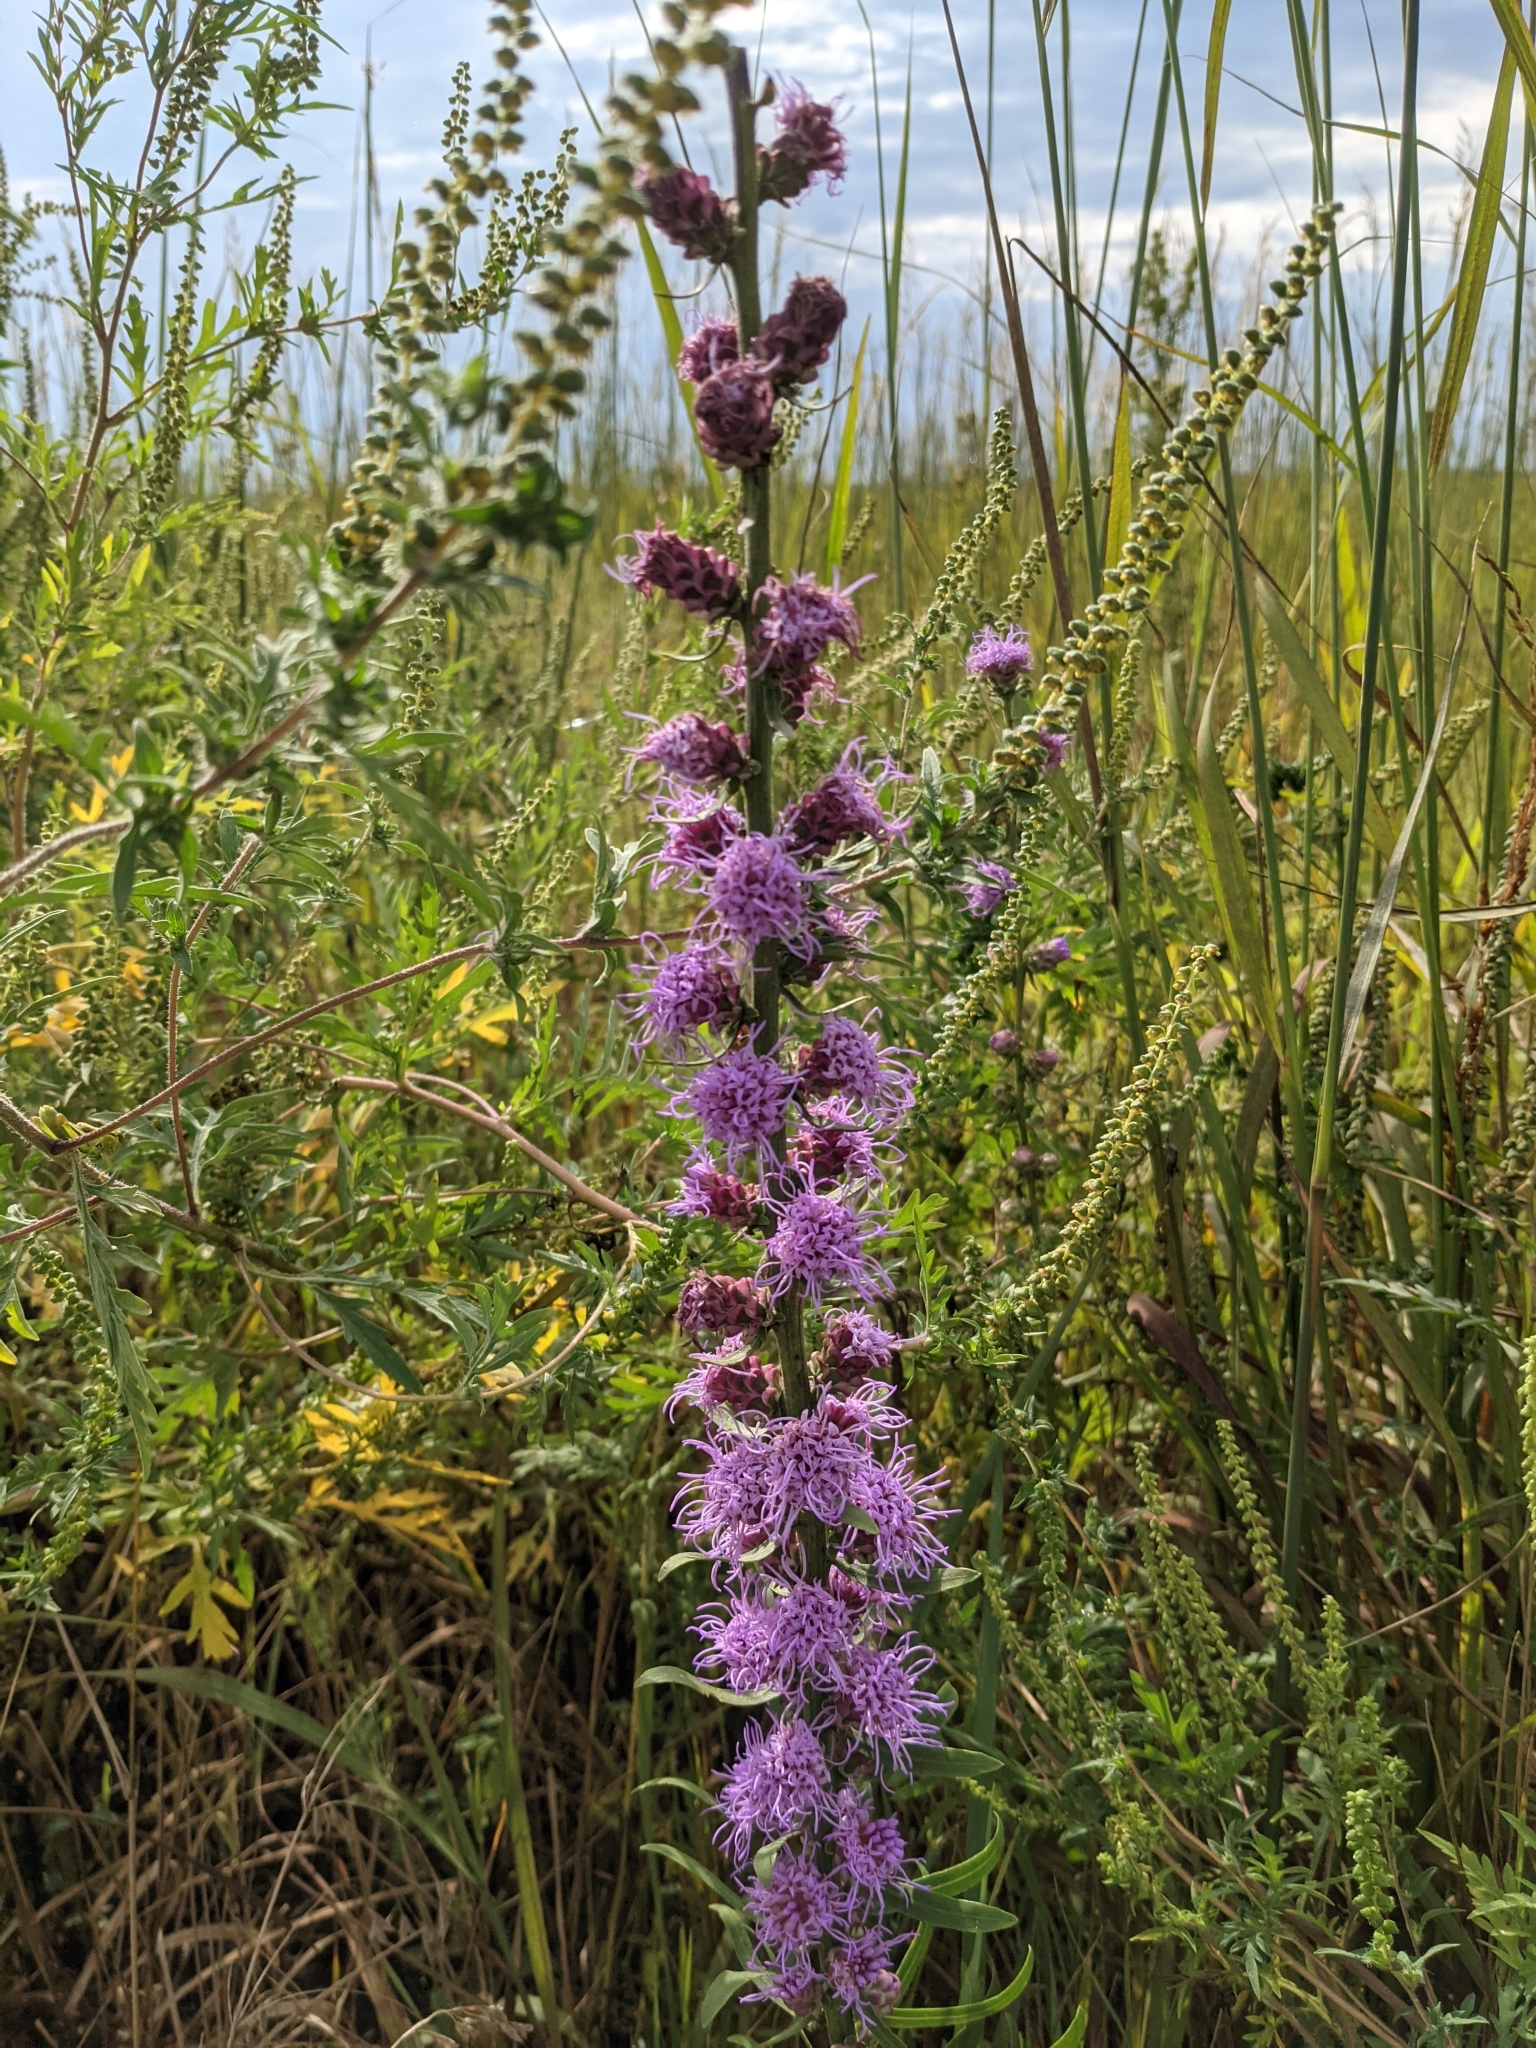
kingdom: Plantae
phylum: Tracheophyta
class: Magnoliopsida
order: Asterales
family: Asteraceae
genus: Liatris
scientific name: Liatris aspera
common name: Lacerate blazing-star
